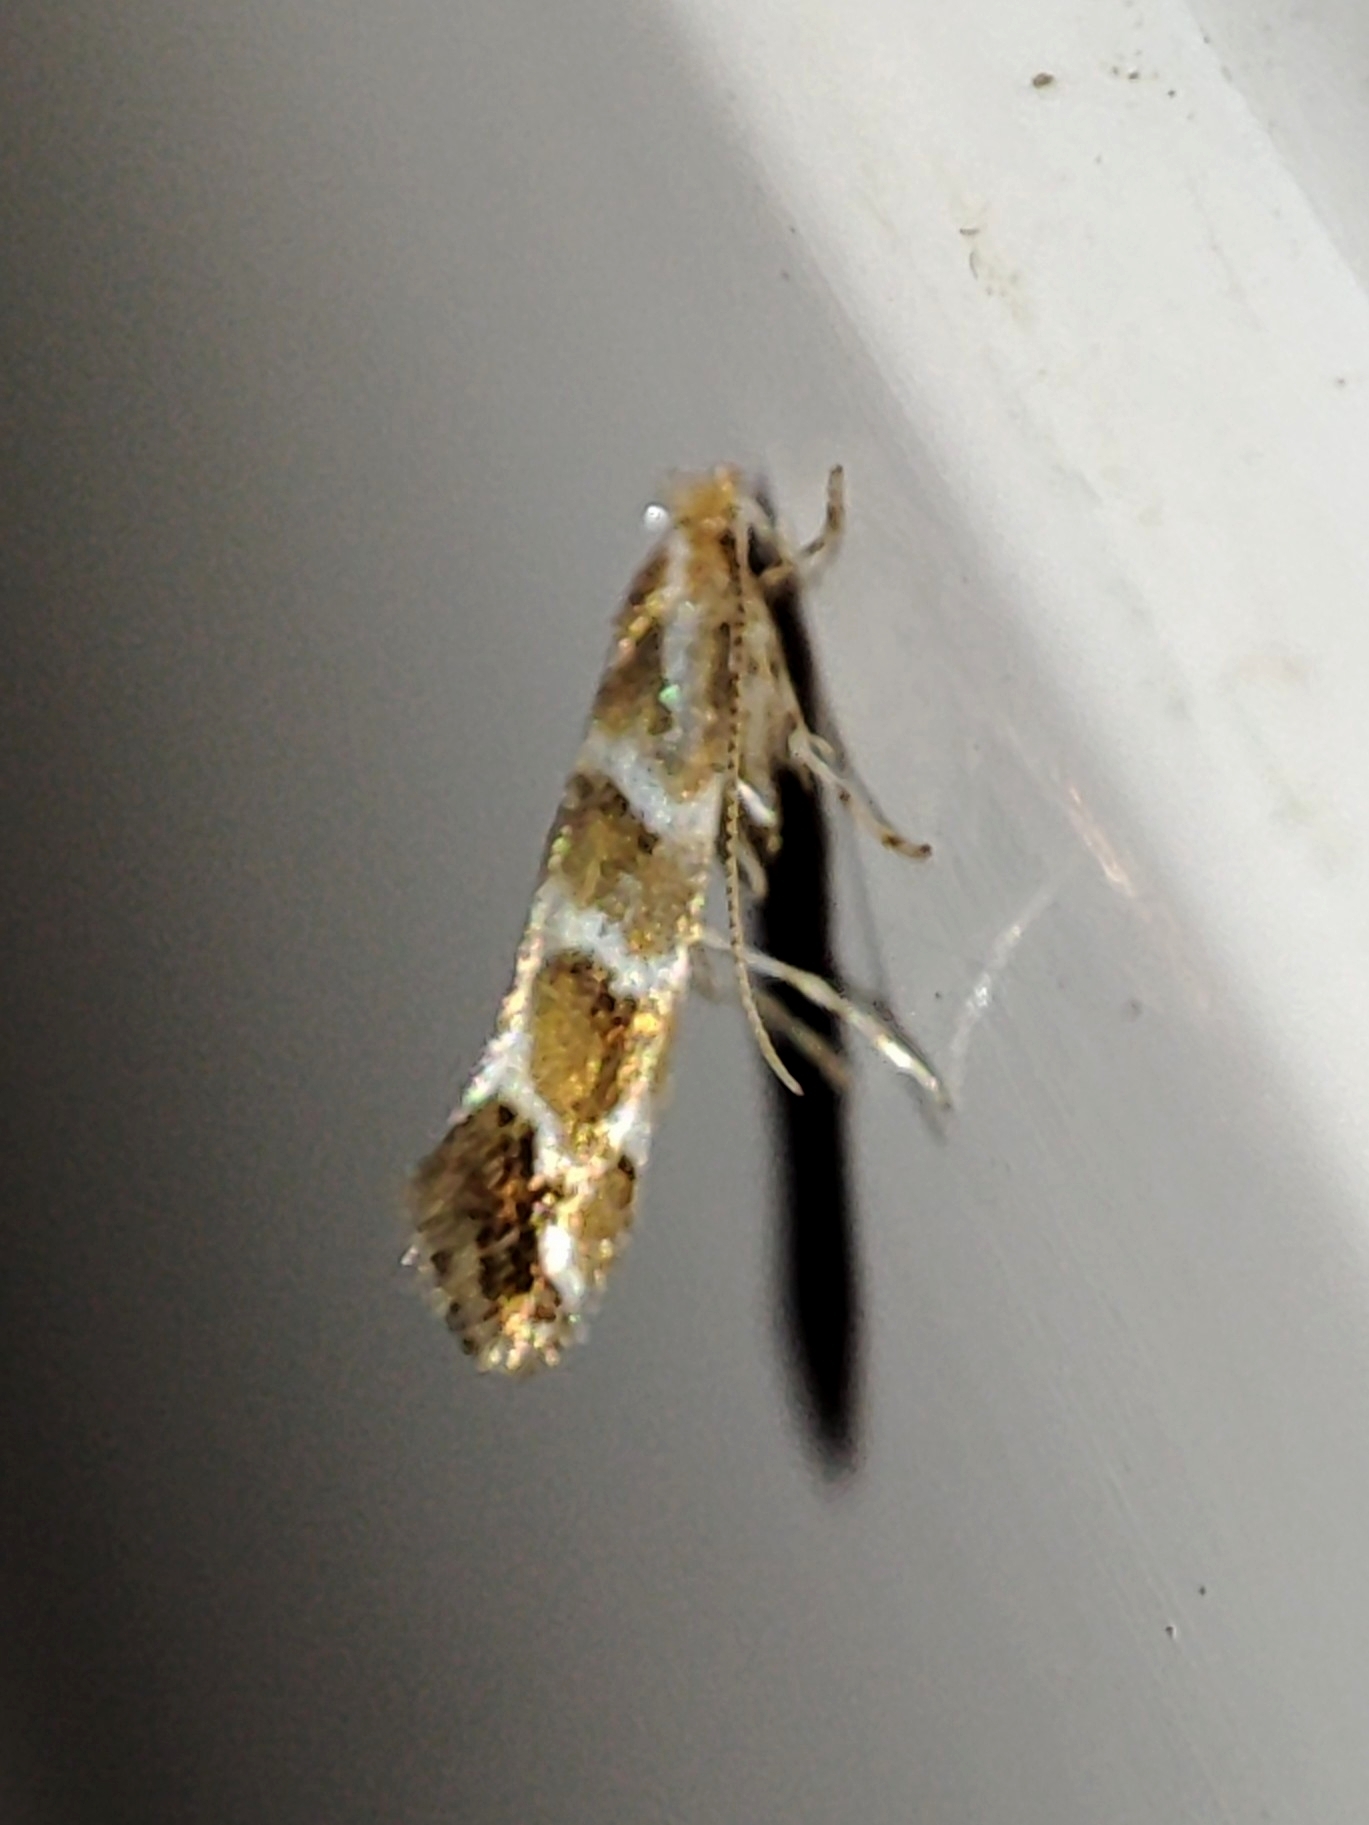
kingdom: Animalia
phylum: Arthropoda
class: Insecta
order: Lepidoptera
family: Gracillariidae
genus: Cameraria
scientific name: Cameraria ohridella
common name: Horse-chestnut leaf-miner
